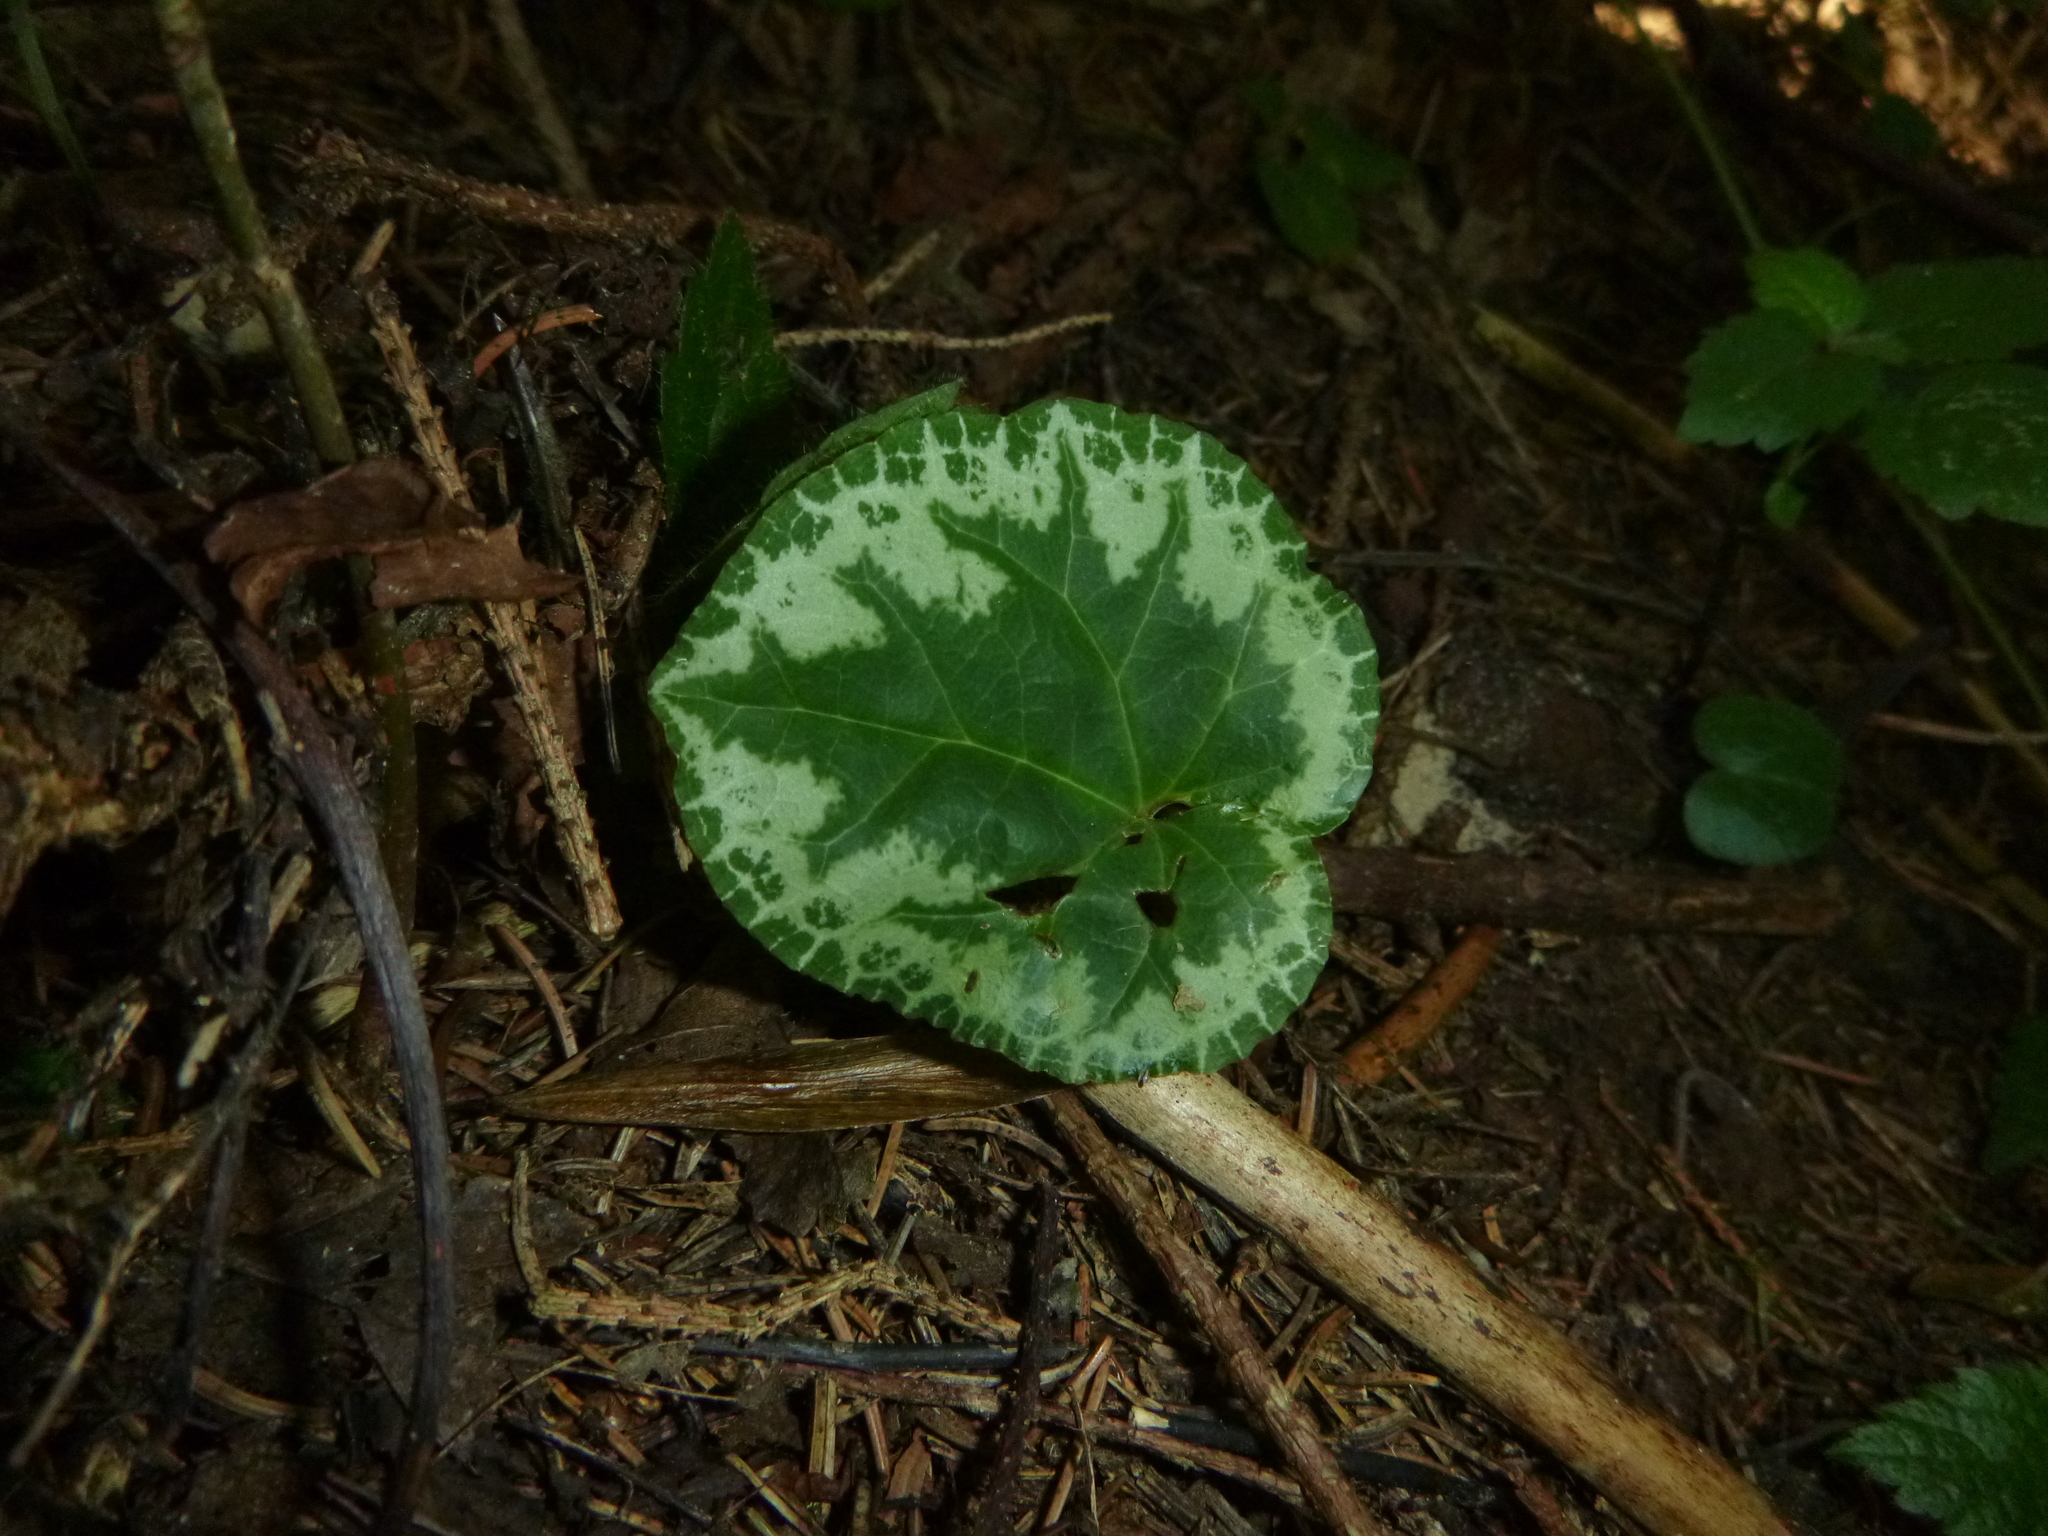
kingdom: Plantae
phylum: Tracheophyta
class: Magnoliopsida
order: Ericales
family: Primulaceae
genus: Cyclamen
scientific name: Cyclamen purpurascens
